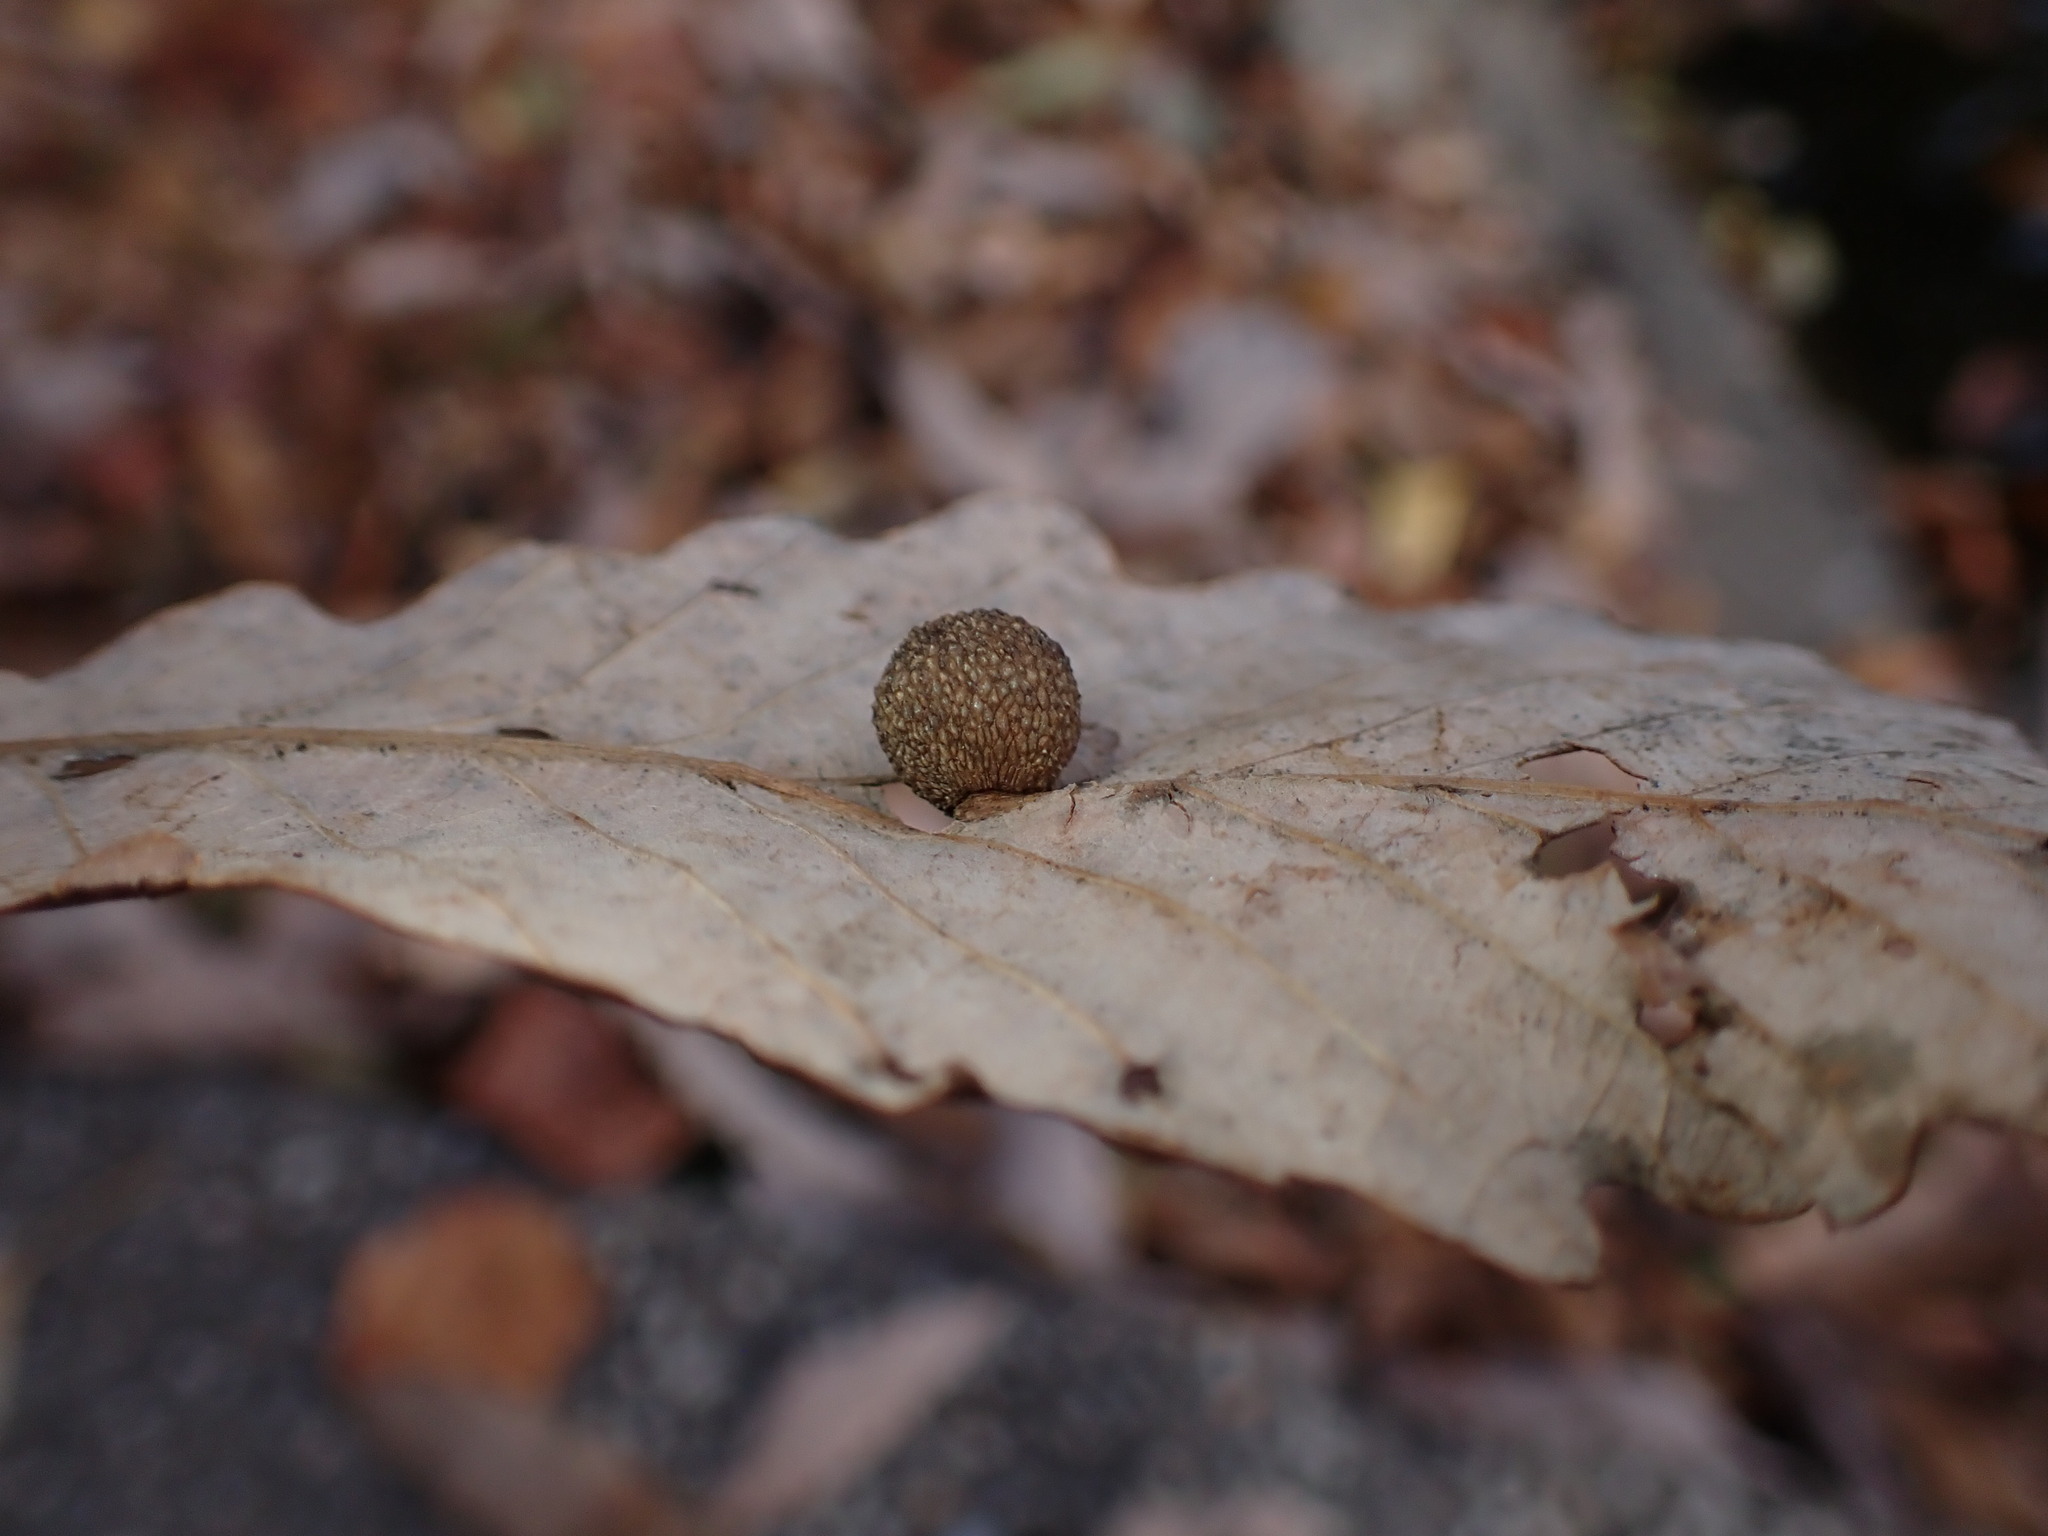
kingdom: Animalia
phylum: Arthropoda
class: Insecta
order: Hymenoptera
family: Cynipidae
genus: Acraspis
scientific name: Acraspis quercushirta
